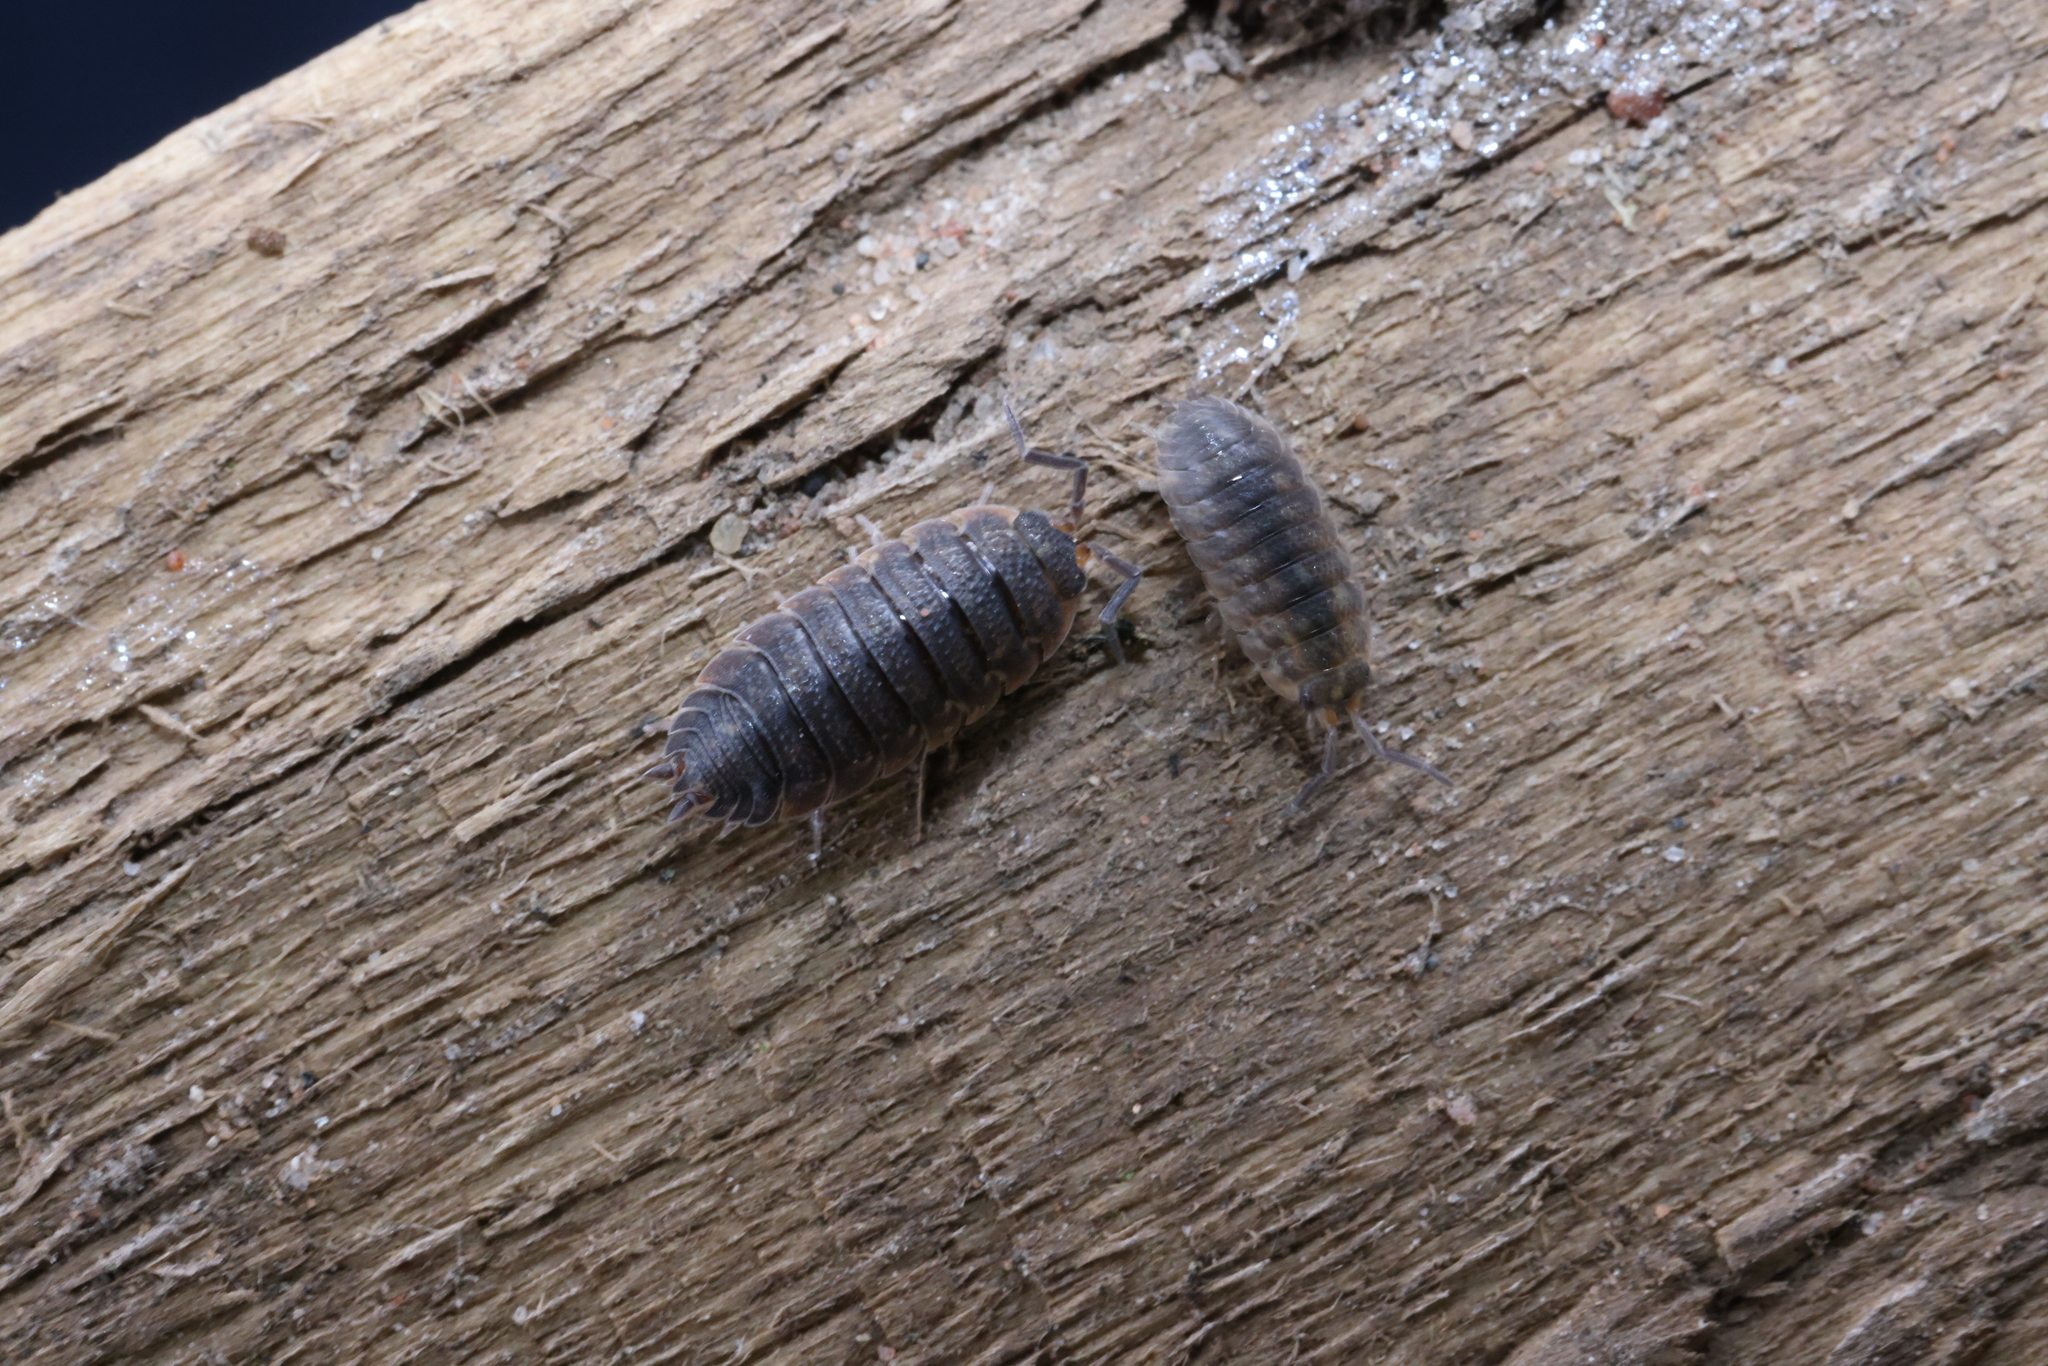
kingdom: Animalia
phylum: Arthropoda
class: Malacostraca
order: Isopoda
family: Porcellionidae
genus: Porcellio
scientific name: Porcellio scaber
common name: Common rough woodlouse
